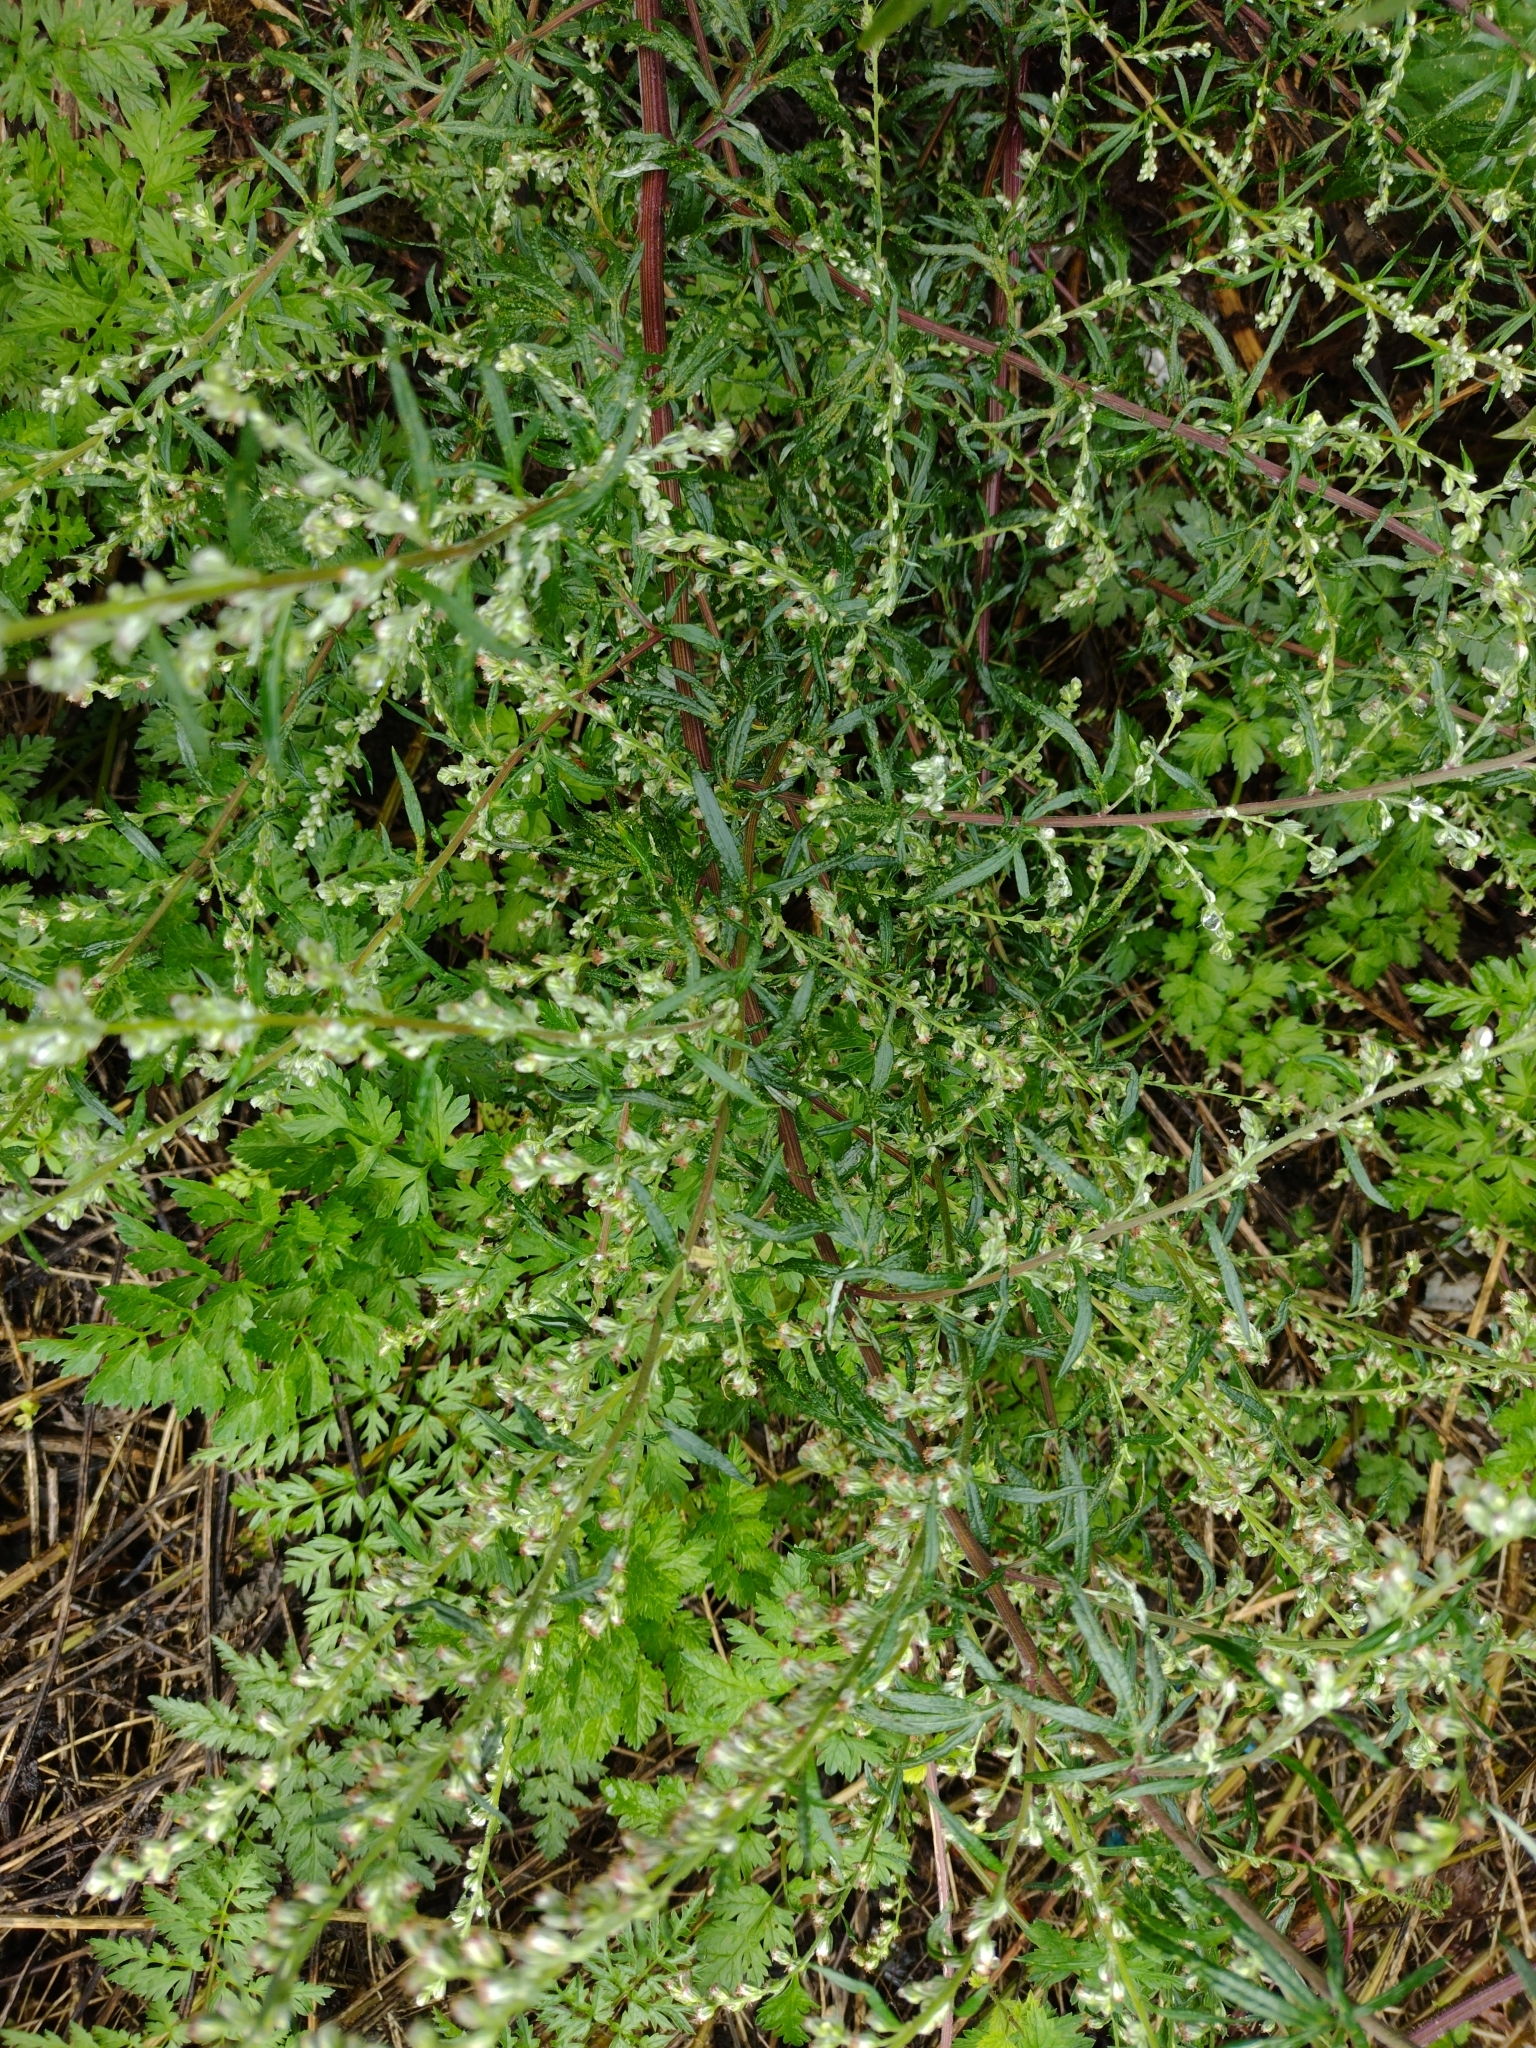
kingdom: Plantae
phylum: Tracheophyta
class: Magnoliopsida
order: Asterales
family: Asteraceae
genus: Artemisia
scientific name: Artemisia vulgaris
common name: Mugwort
